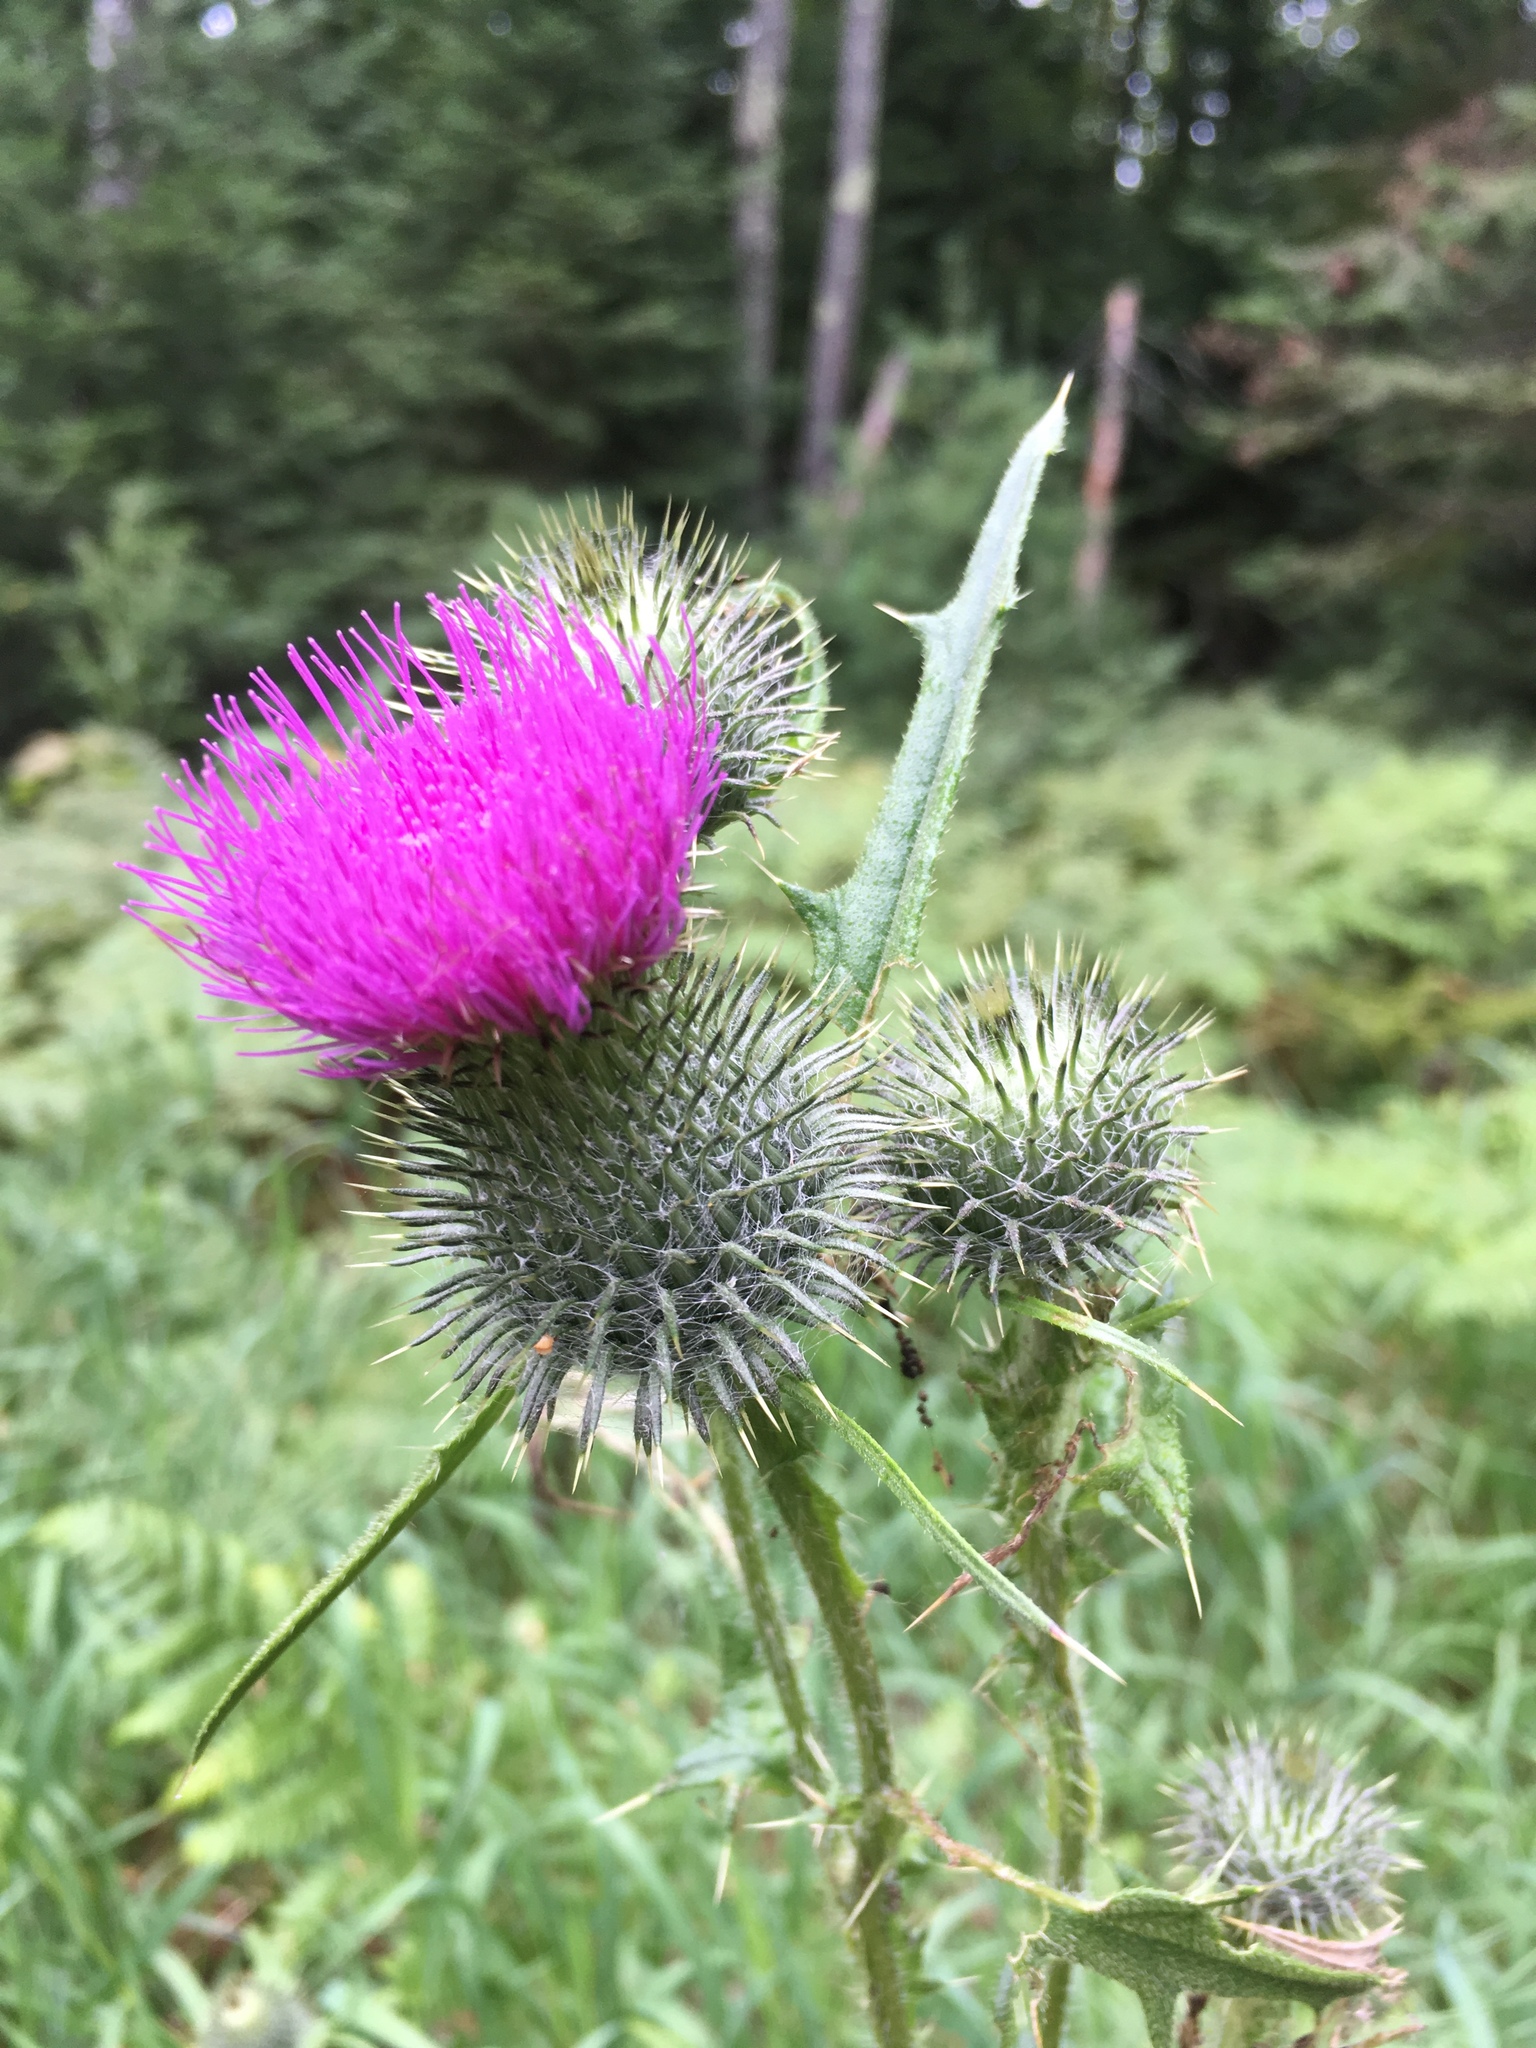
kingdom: Plantae
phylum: Tracheophyta
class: Magnoliopsida
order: Asterales
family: Asteraceae
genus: Cirsium
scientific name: Cirsium vulgare
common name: Bull thistle
